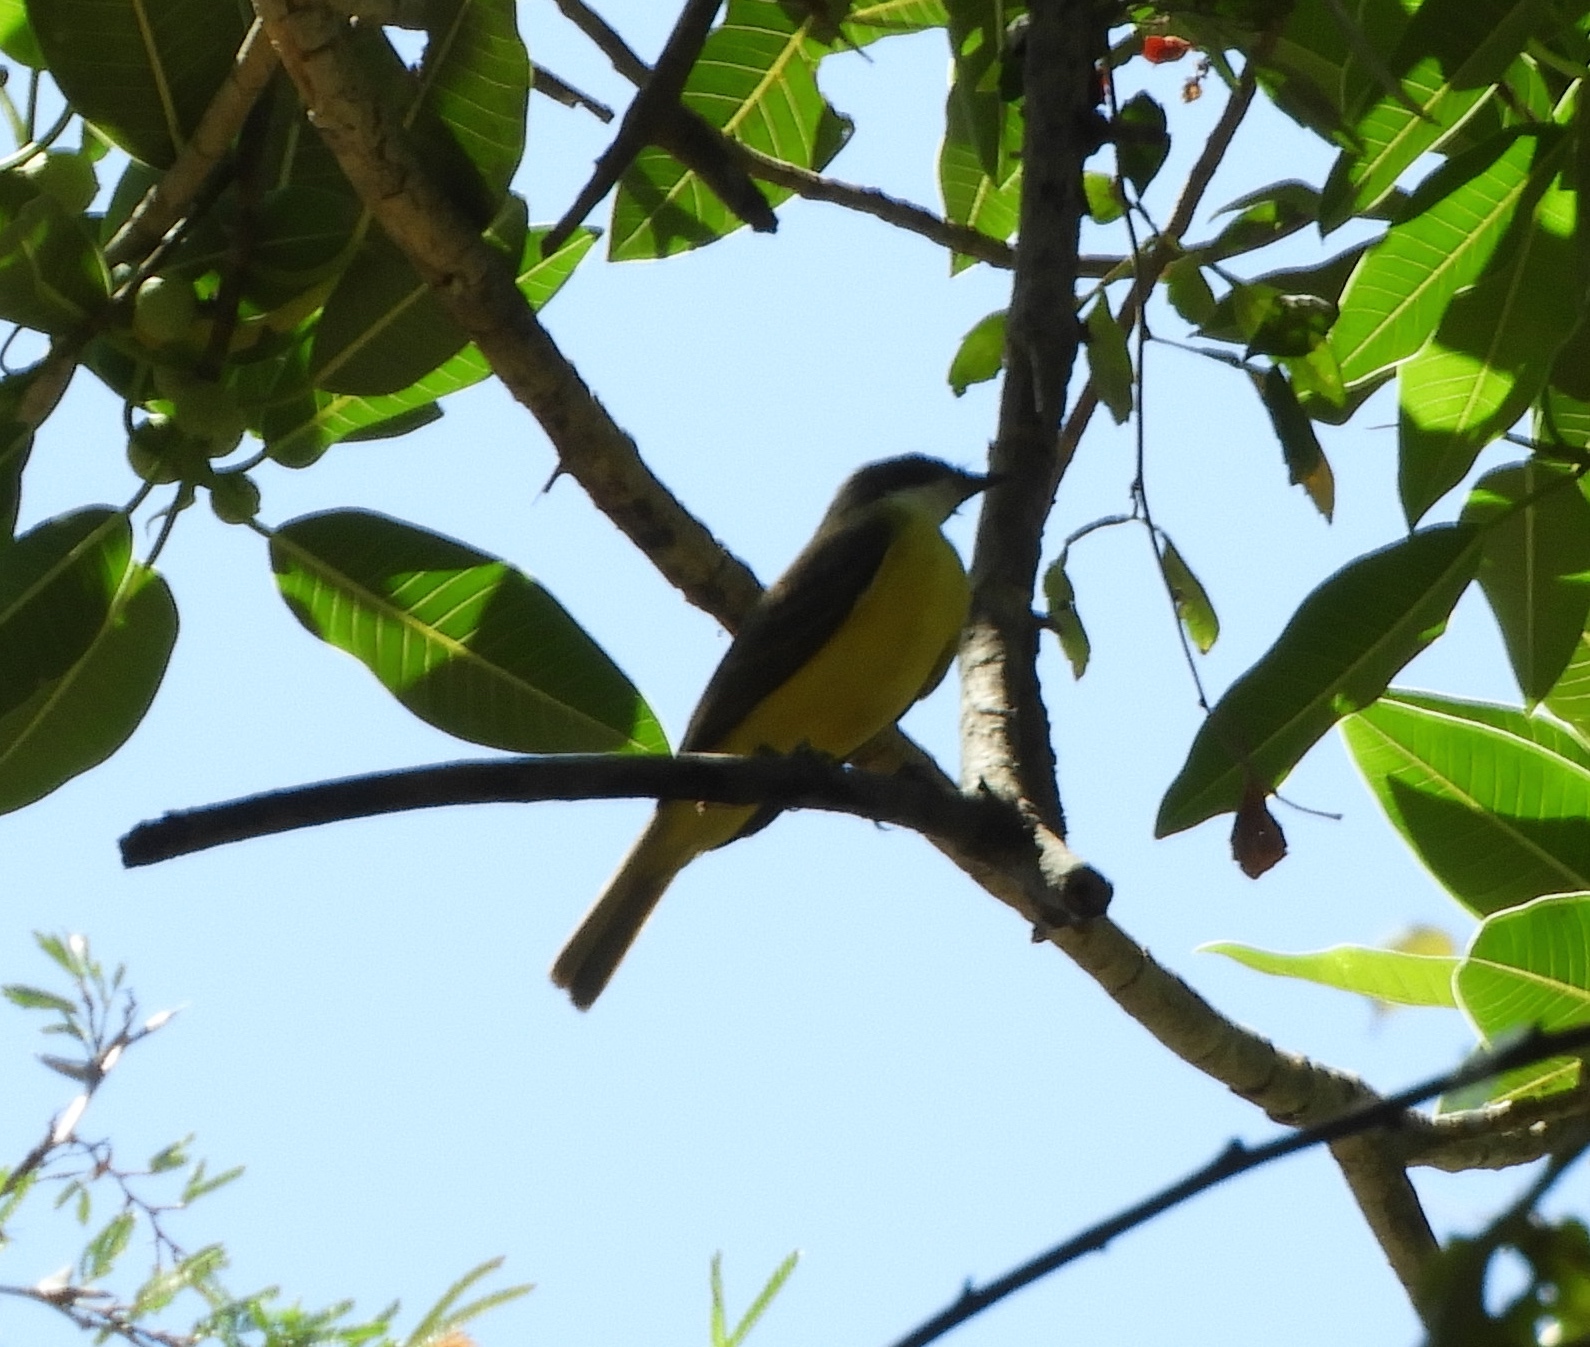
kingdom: Animalia
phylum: Chordata
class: Aves
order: Passeriformes
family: Tyrannidae
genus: Myiozetetes
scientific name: Myiozetetes similis
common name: Social flycatcher
